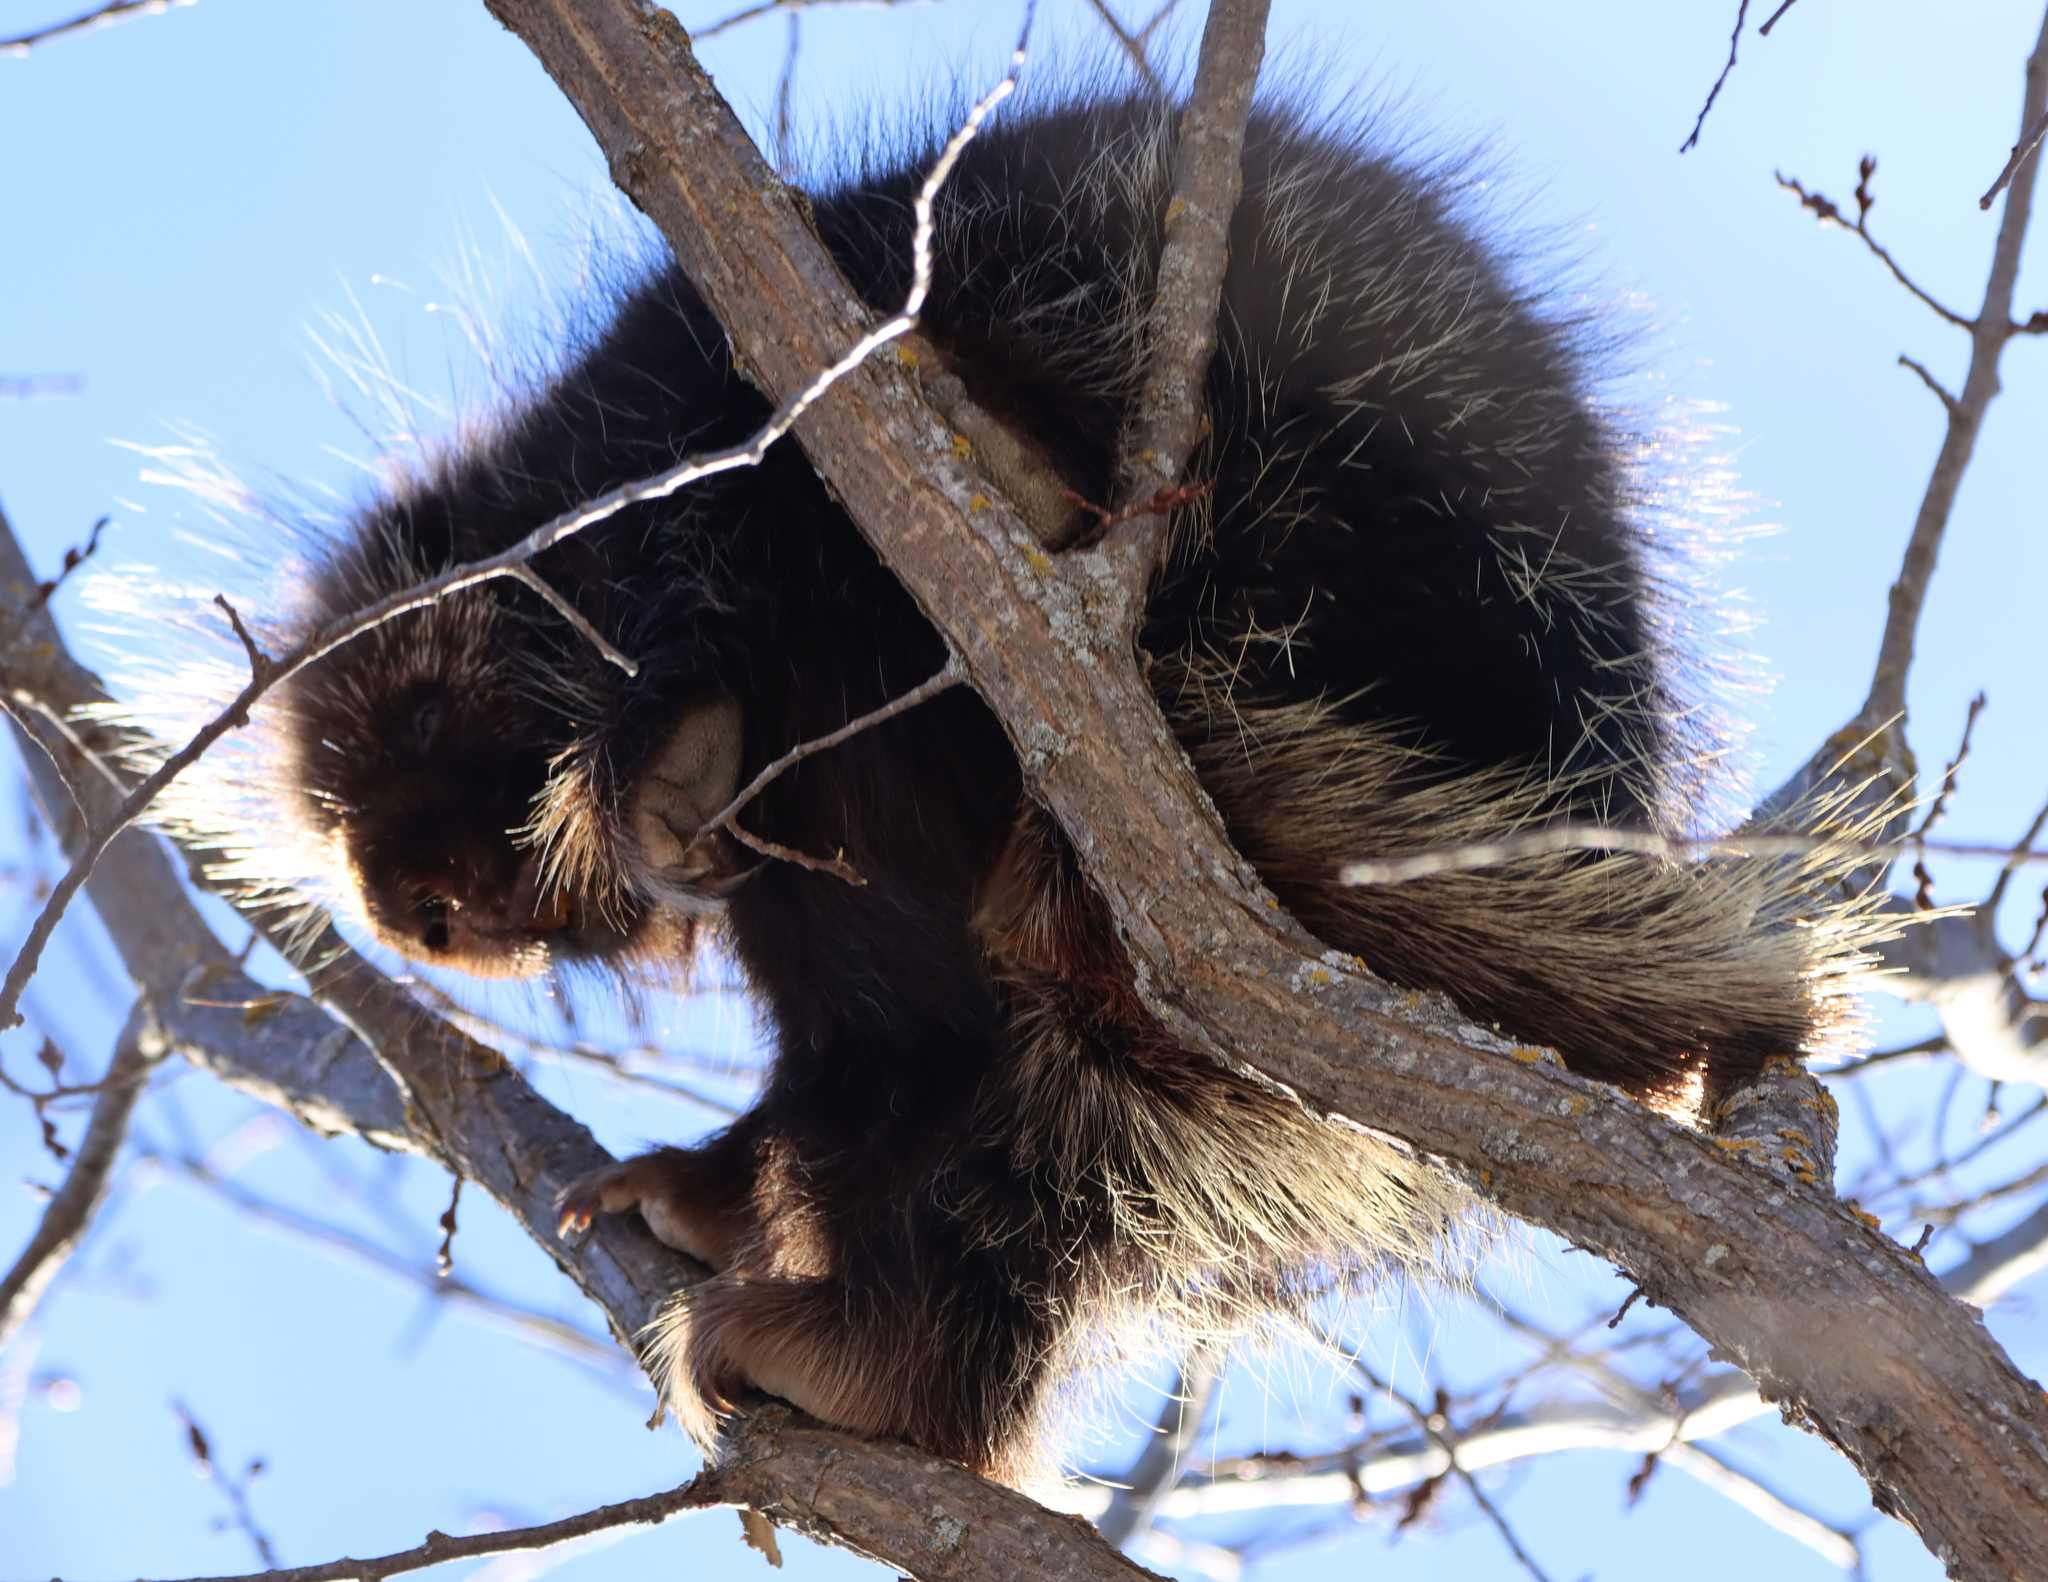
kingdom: Animalia
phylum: Chordata
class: Mammalia
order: Rodentia
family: Erethizontidae
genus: Erethizon
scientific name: Erethizon dorsatus
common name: North american porcupine
